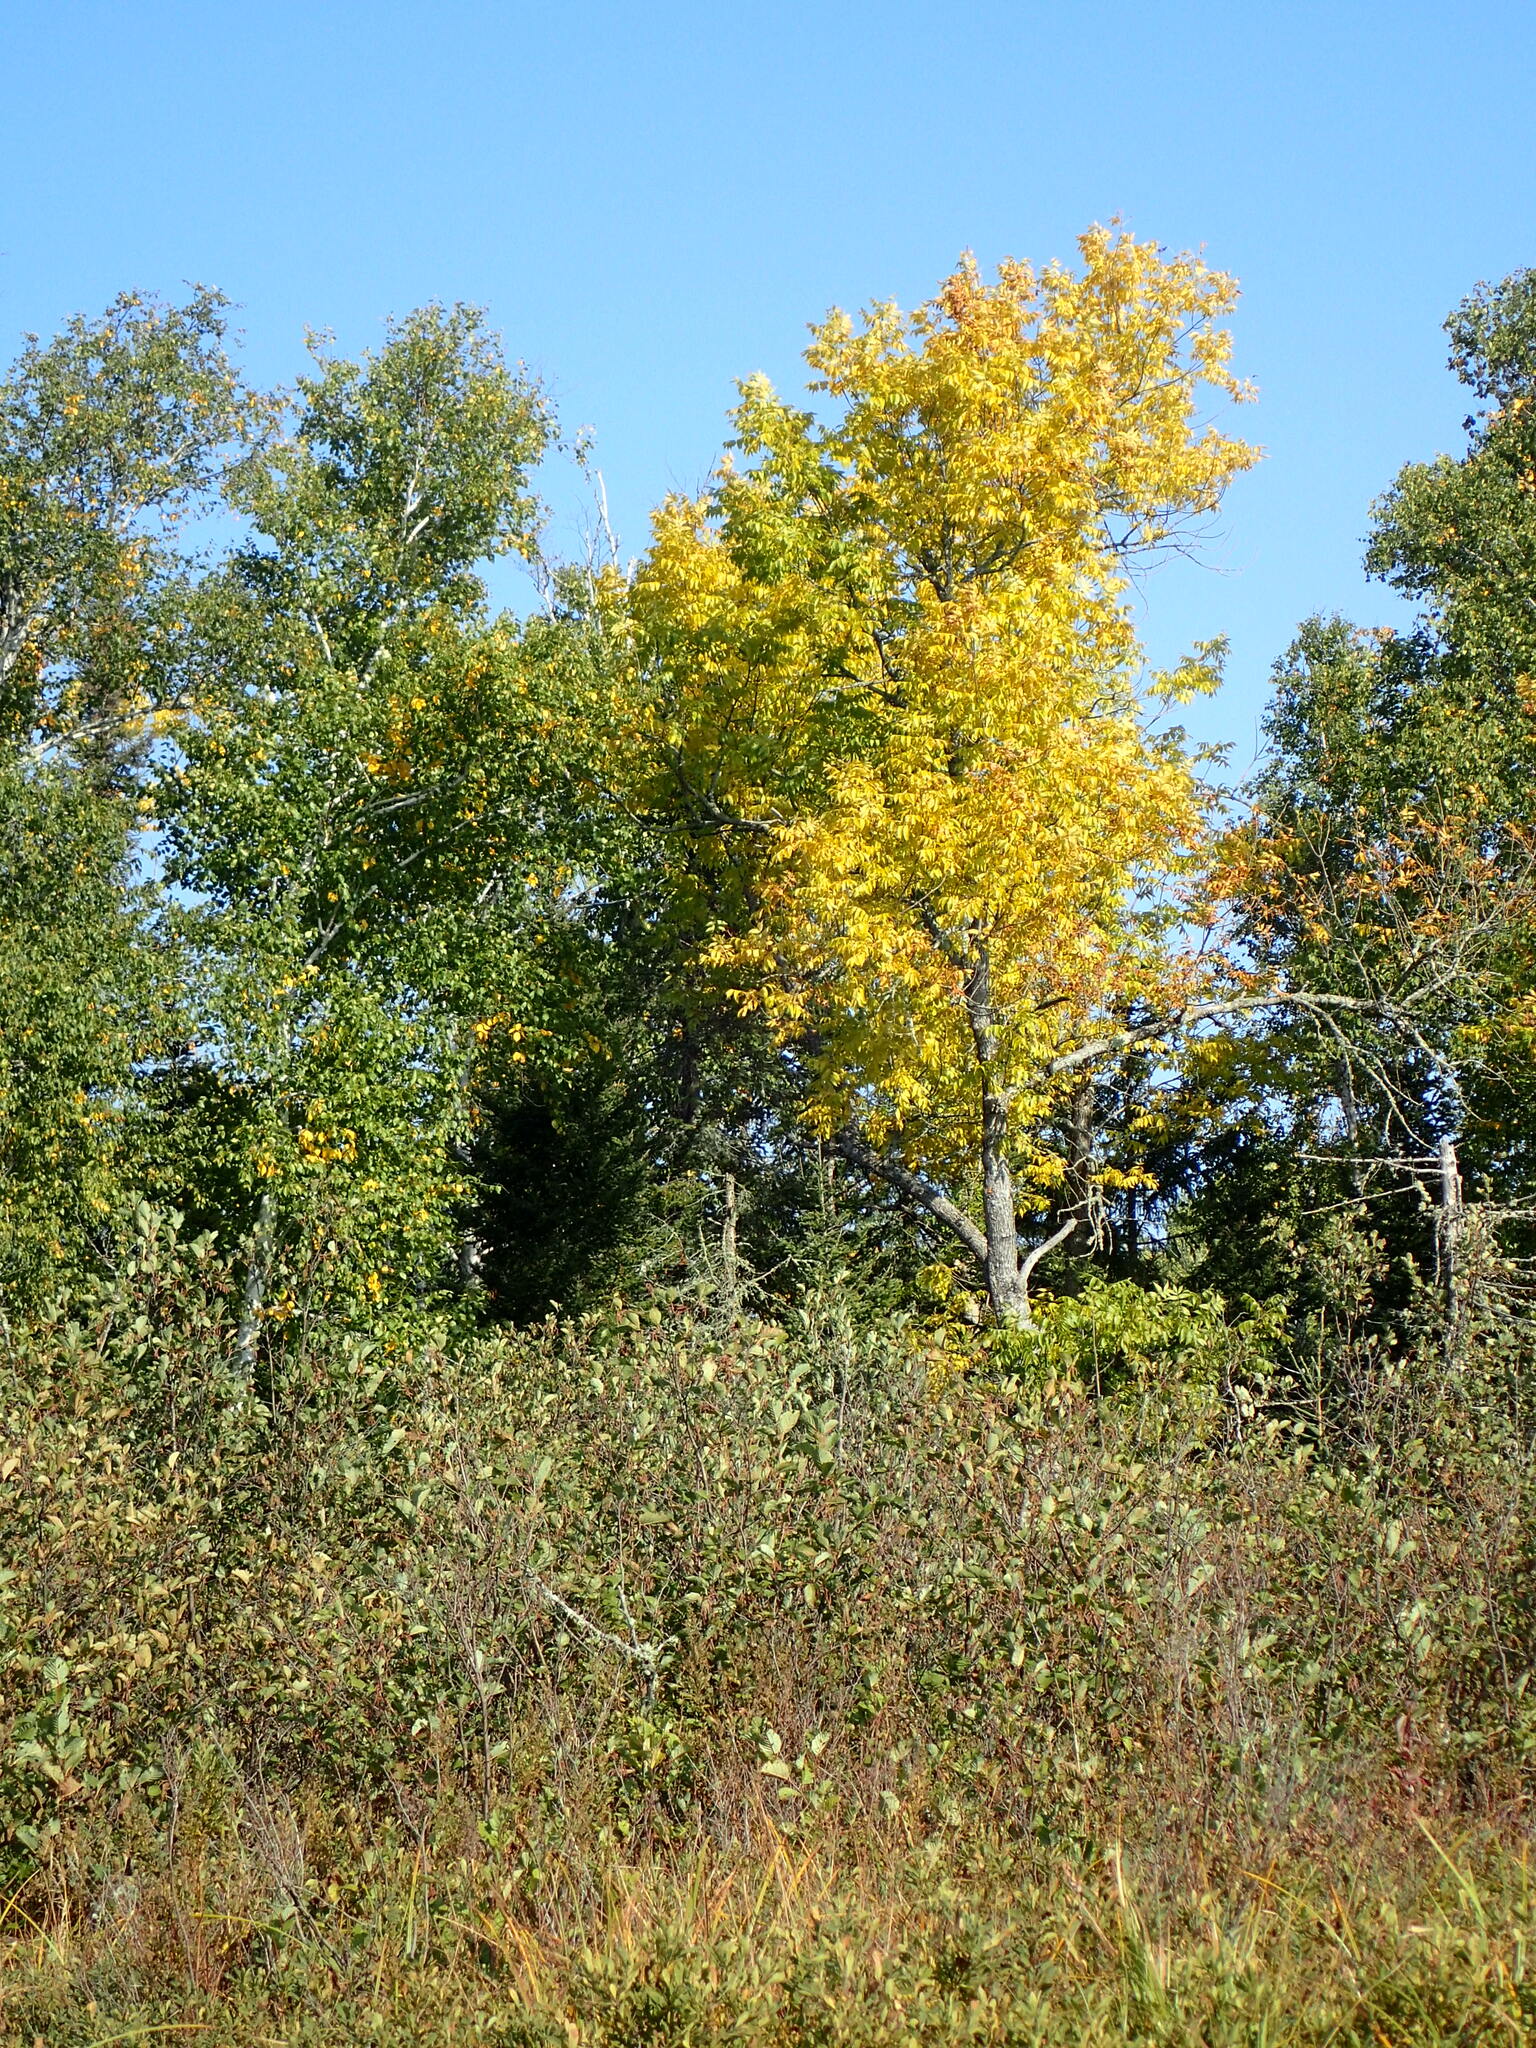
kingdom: Plantae
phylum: Tracheophyta
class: Magnoliopsida
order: Lamiales
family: Oleaceae
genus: Fraxinus
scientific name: Fraxinus nigra
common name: Black ash
